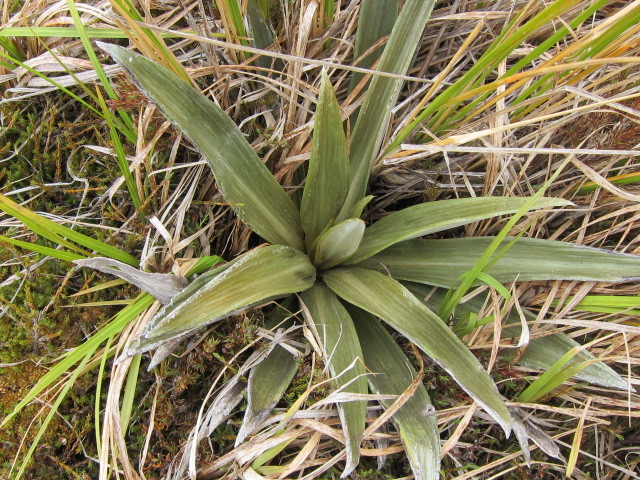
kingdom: Plantae
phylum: Tracheophyta
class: Magnoliopsida
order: Asterales
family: Asteraceae
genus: Celmisia
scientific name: Celmisia semicordata
